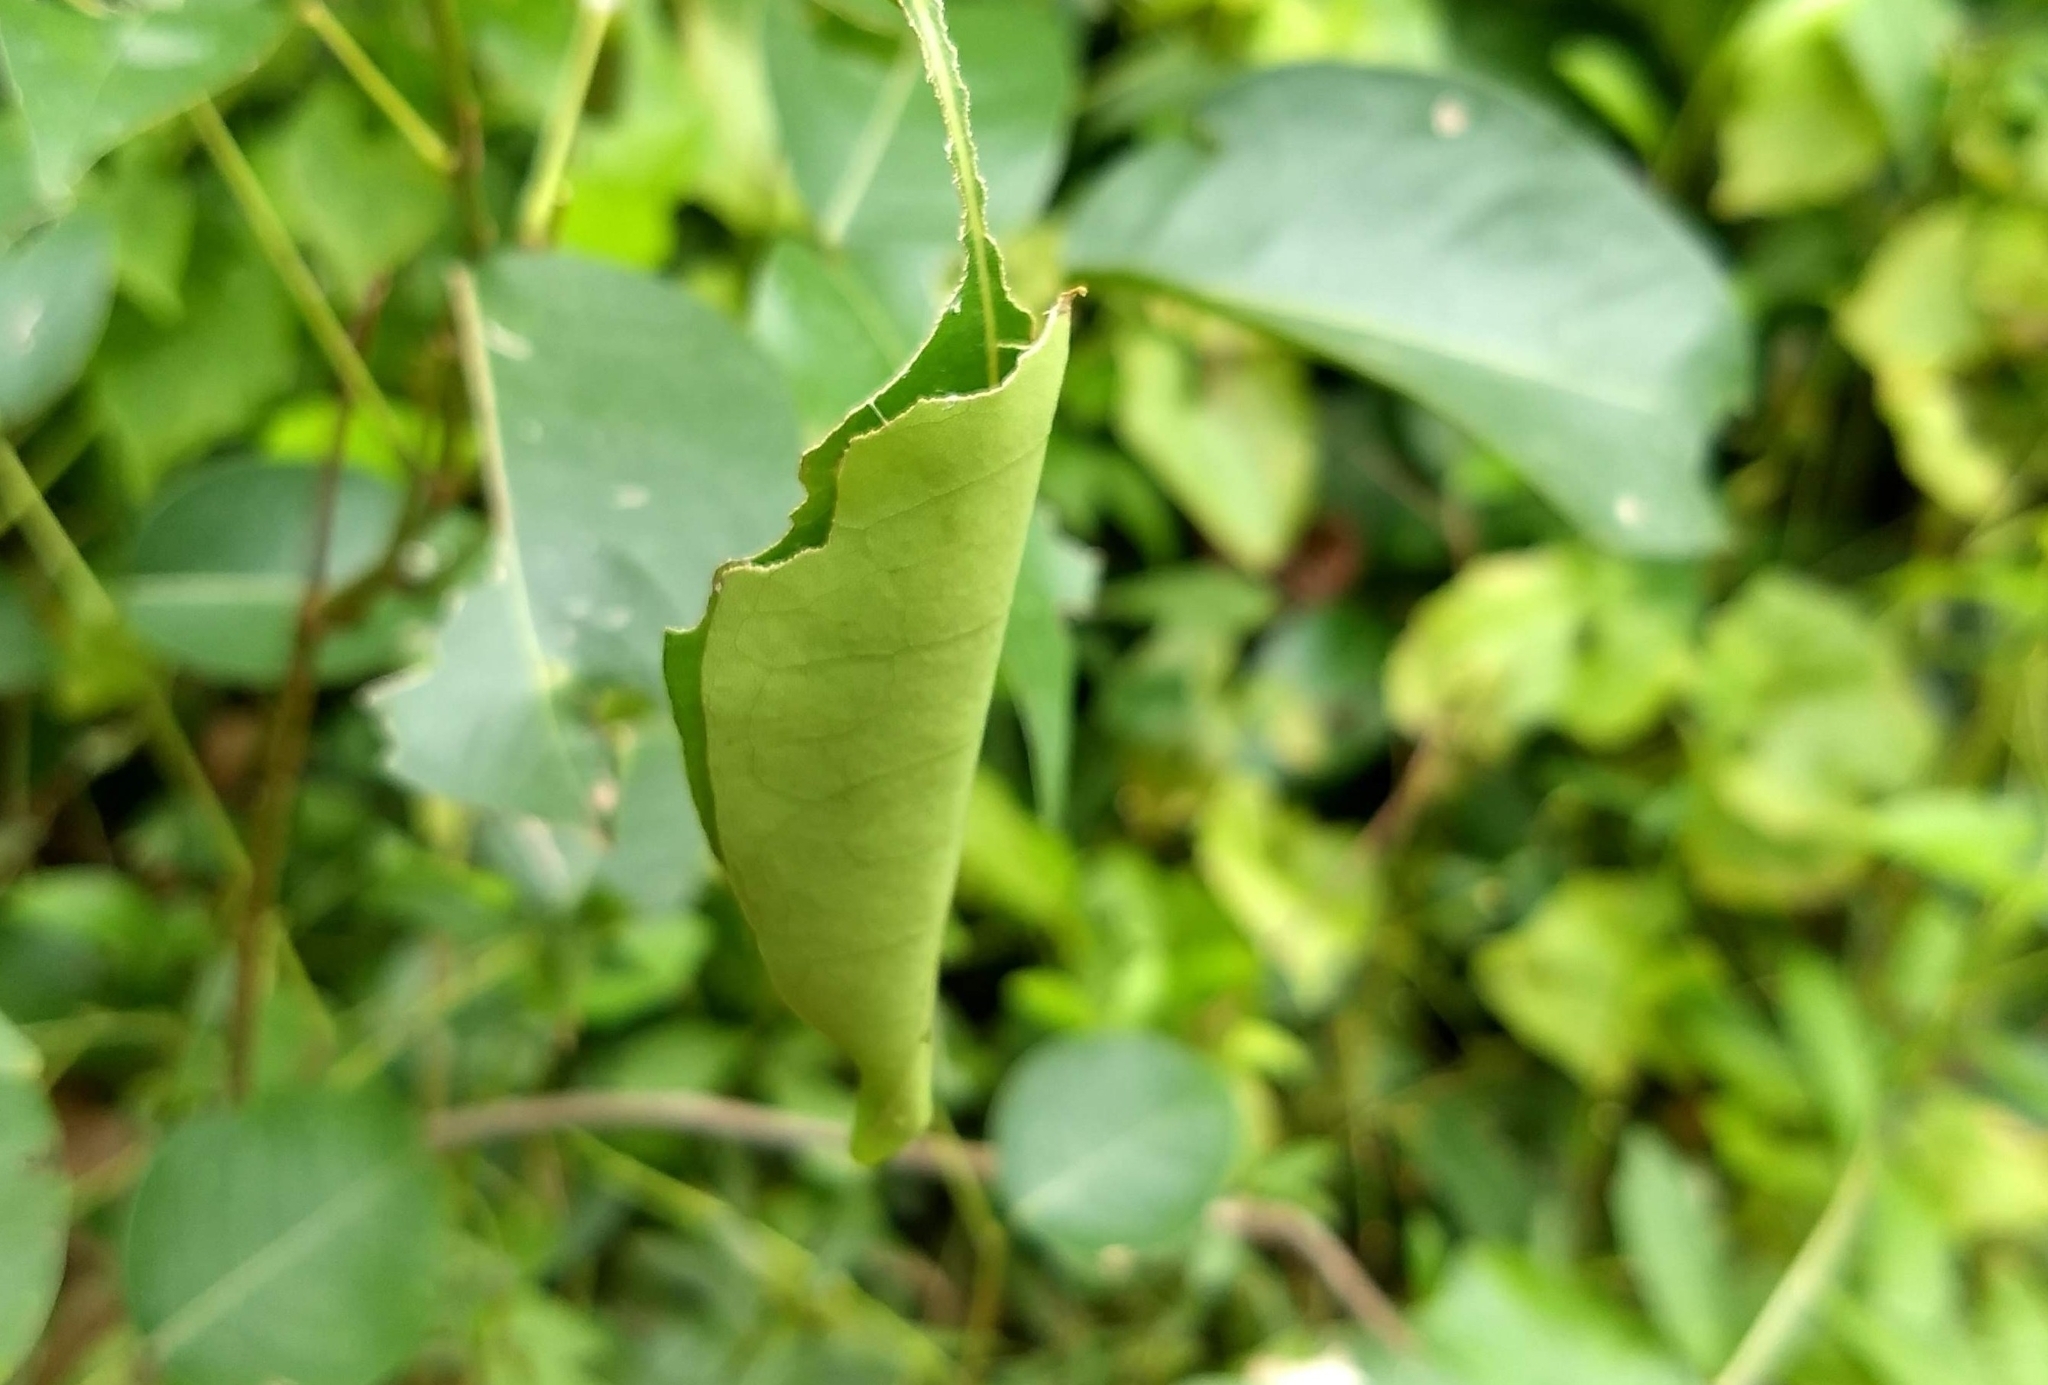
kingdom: Animalia
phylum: Arthropoda
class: Insecta
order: Lepidoptera
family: Hesperiidae
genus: Hasora
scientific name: Hasora badra
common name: Common awl
